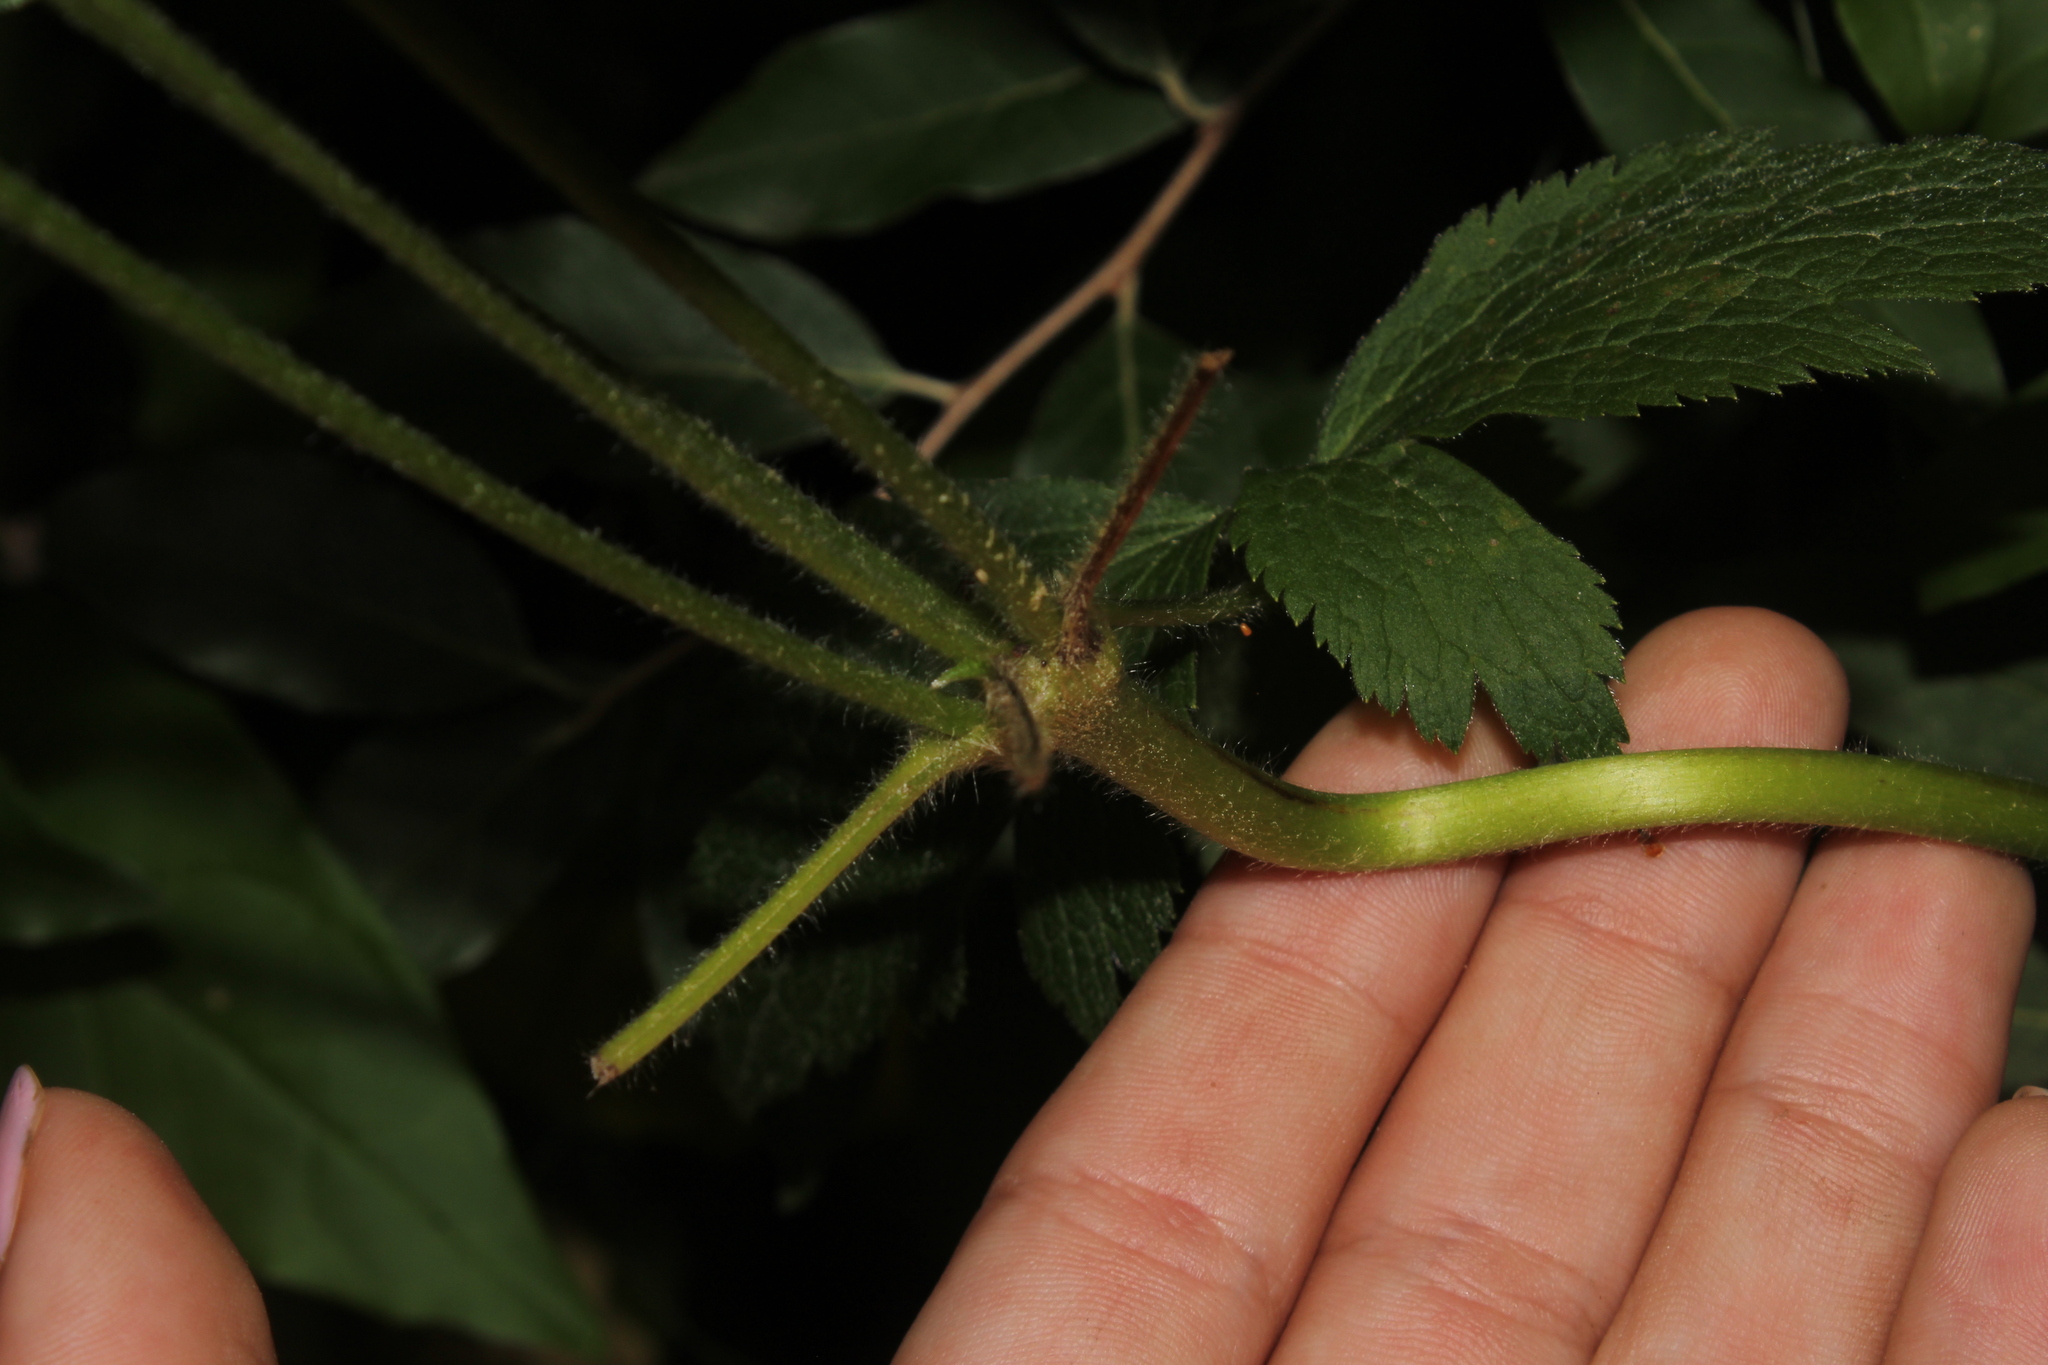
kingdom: Plantae
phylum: Tracheophyta
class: Magnoliopsida
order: Ranunculales
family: Ranunculaceae
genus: Anemone
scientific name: Anemone virginiana
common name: Tall anemone
